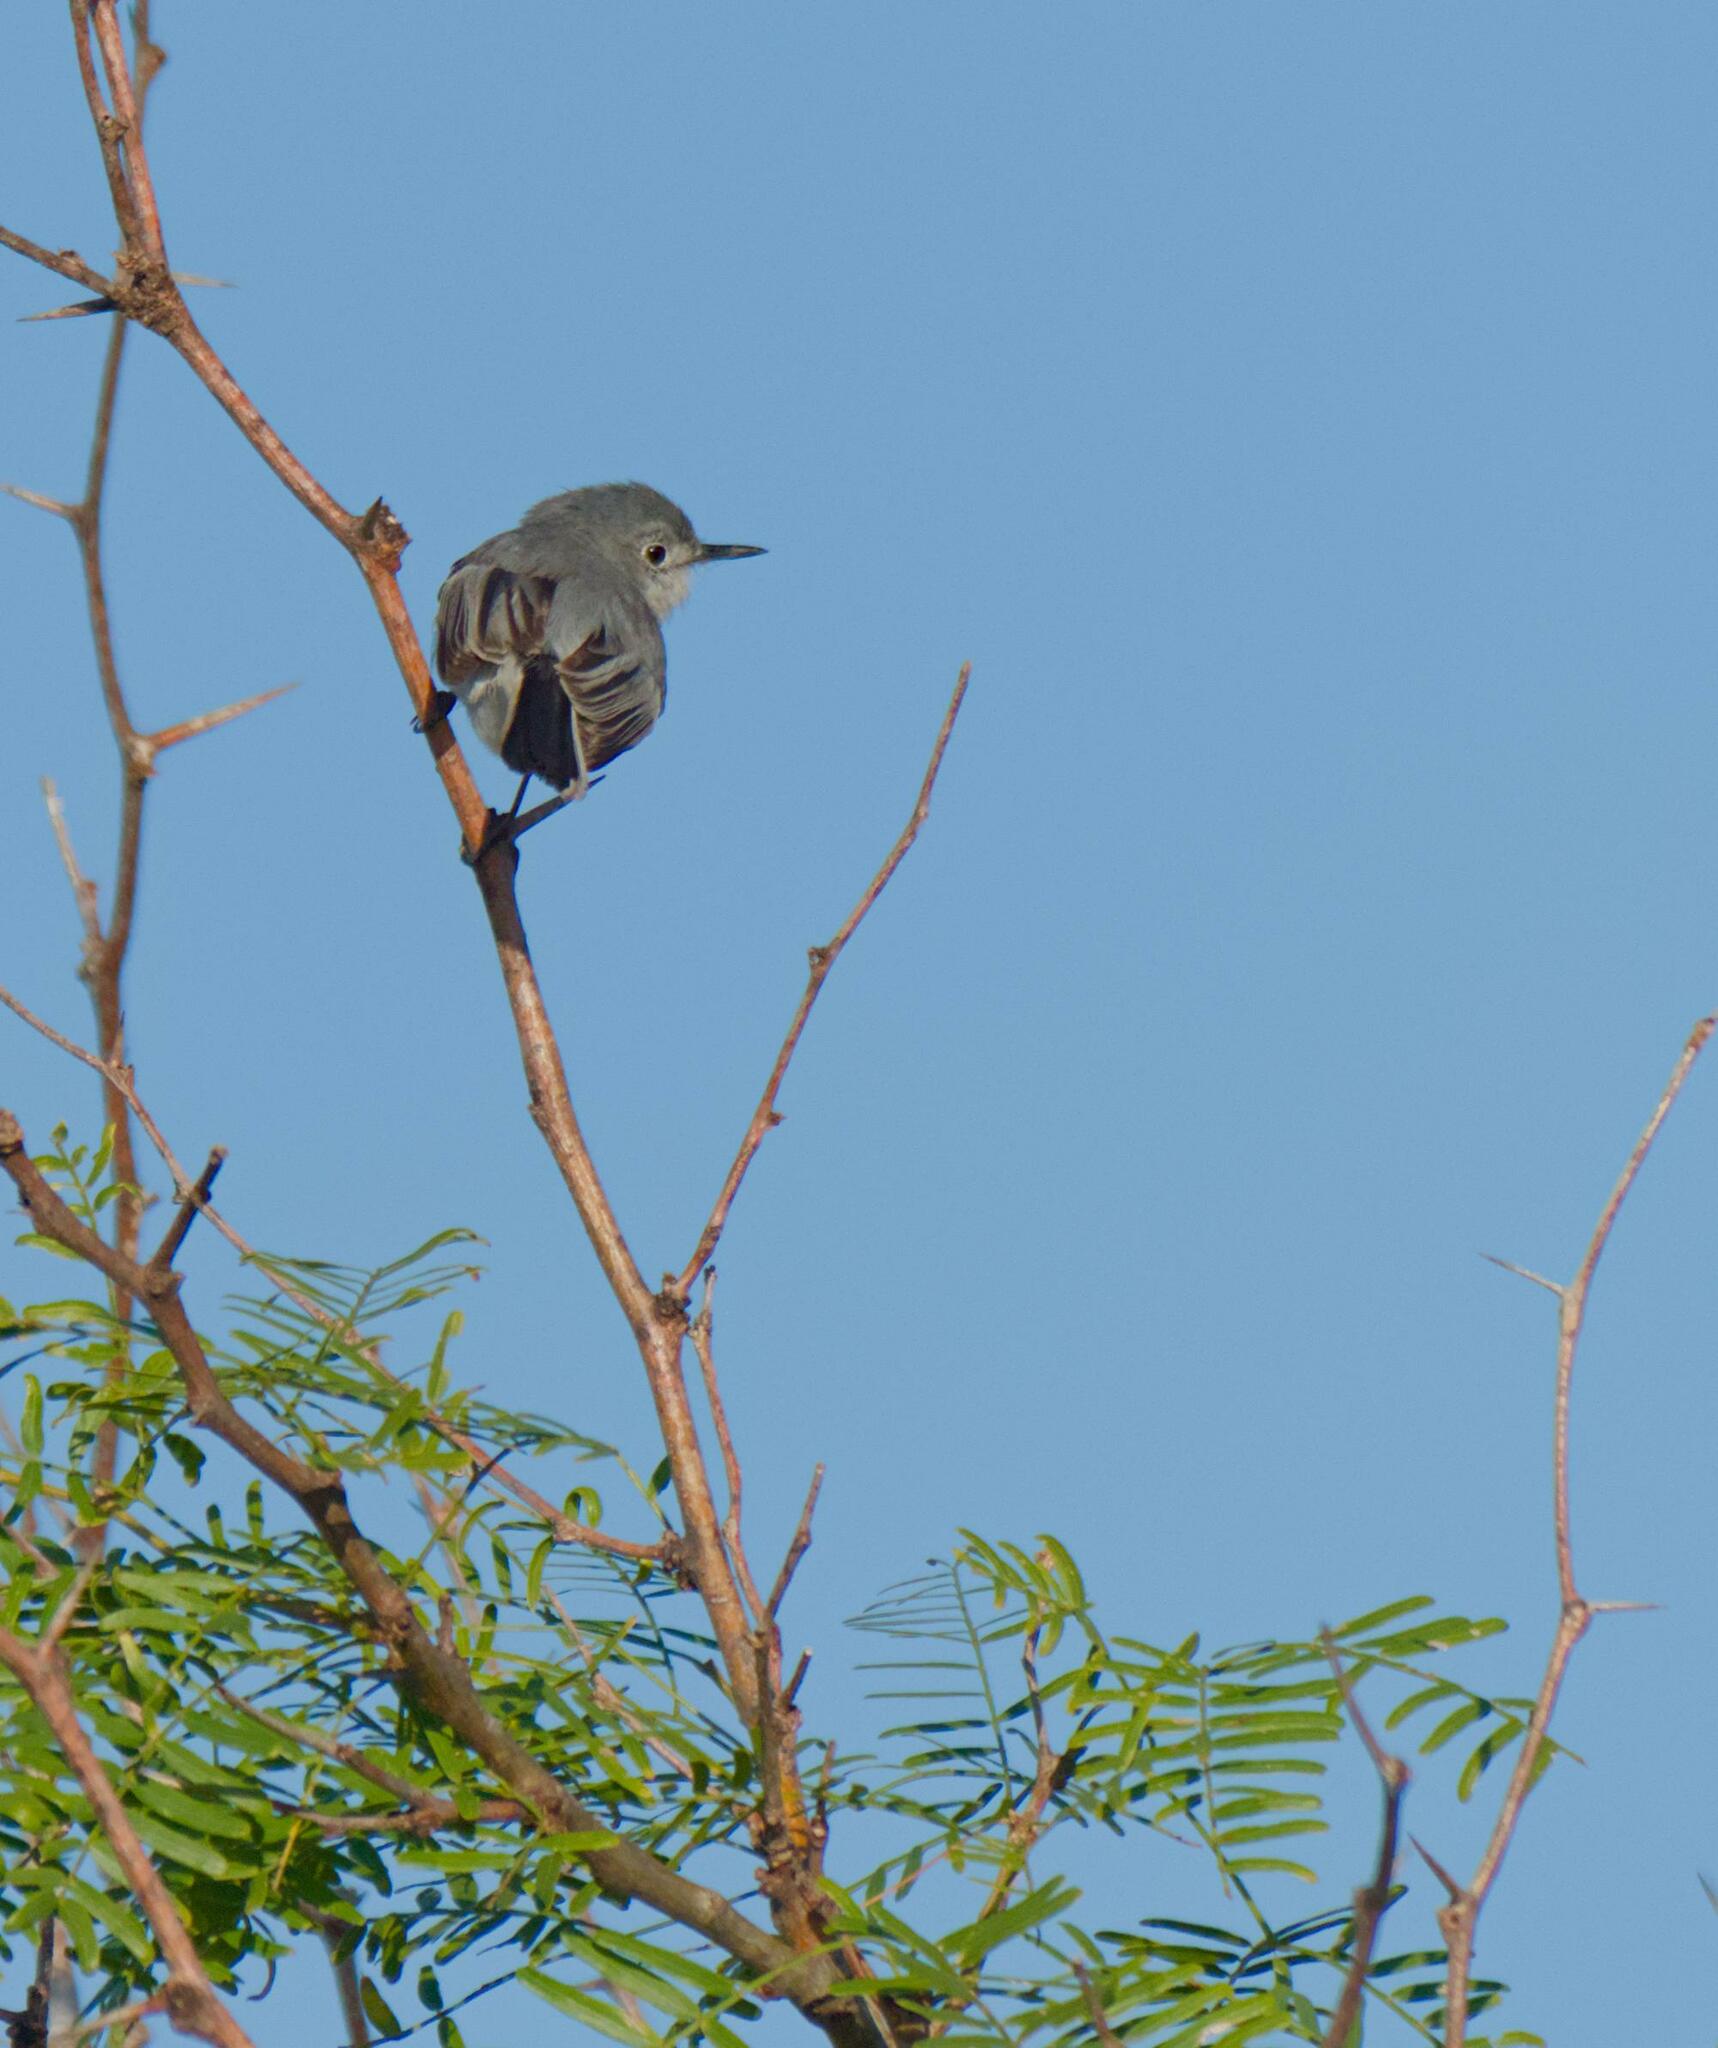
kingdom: Animalia
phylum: Chordata
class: Aves
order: Passeriformes
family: Polioptilidae
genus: Polioptila
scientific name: Polioptila caerulea
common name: Blue-gray gnatcatcher
